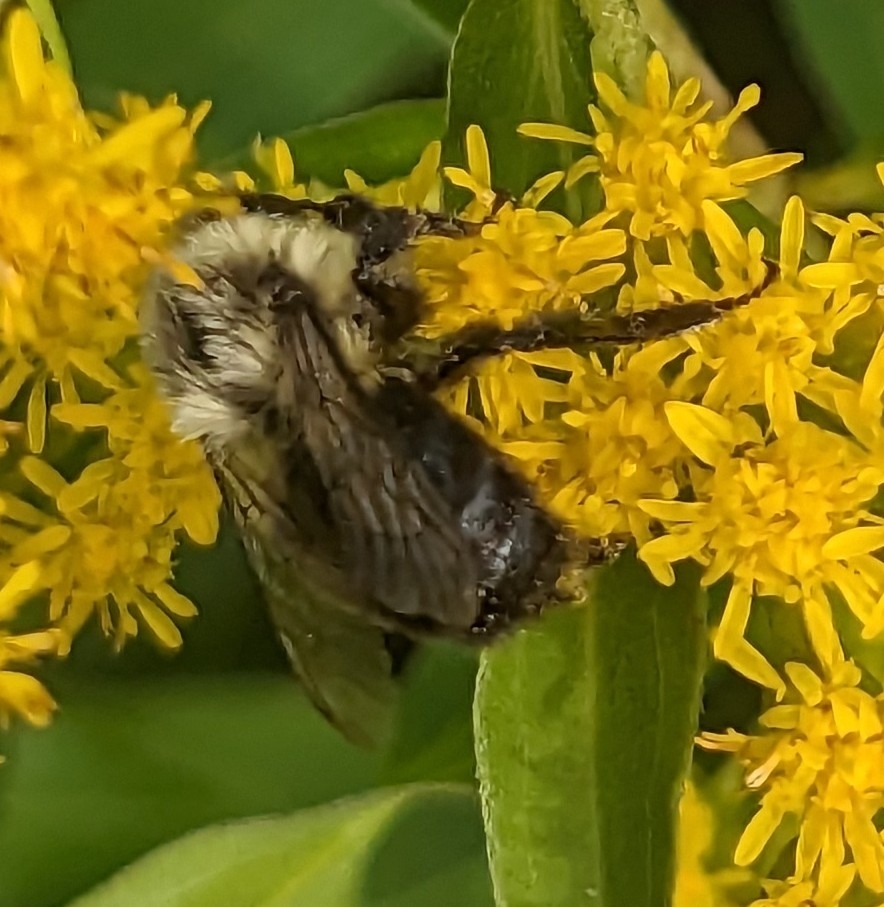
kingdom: Animalia
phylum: Arthropoda
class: Insecta
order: Hymenoptera
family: Apidae
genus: Bombus
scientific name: Bombus impatiens
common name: Common eastern bumble bee
